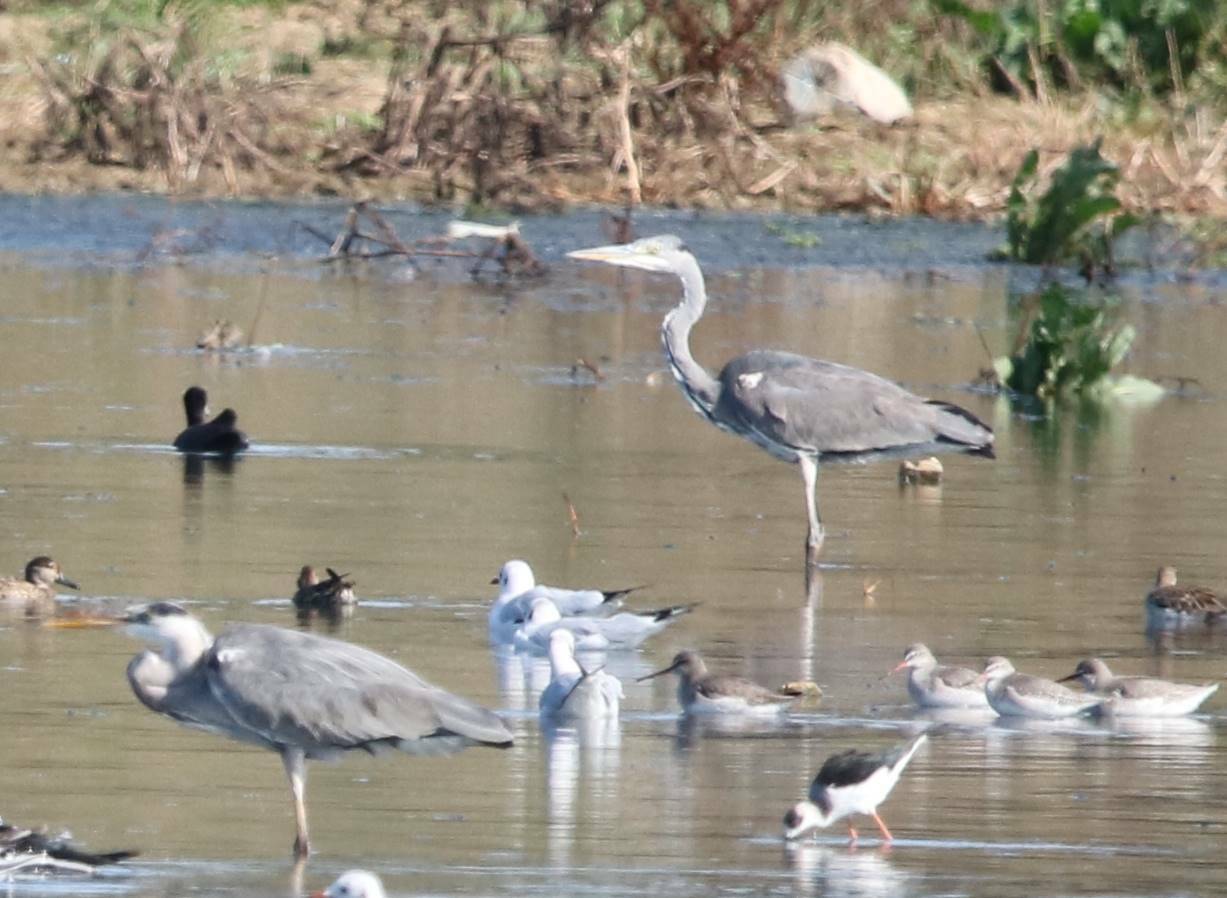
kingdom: Animalia
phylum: Chordata
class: Aves
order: Pelecaniformes
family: Ardeidae
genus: Ardea
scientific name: Ardea cinerea
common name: Grey heron
